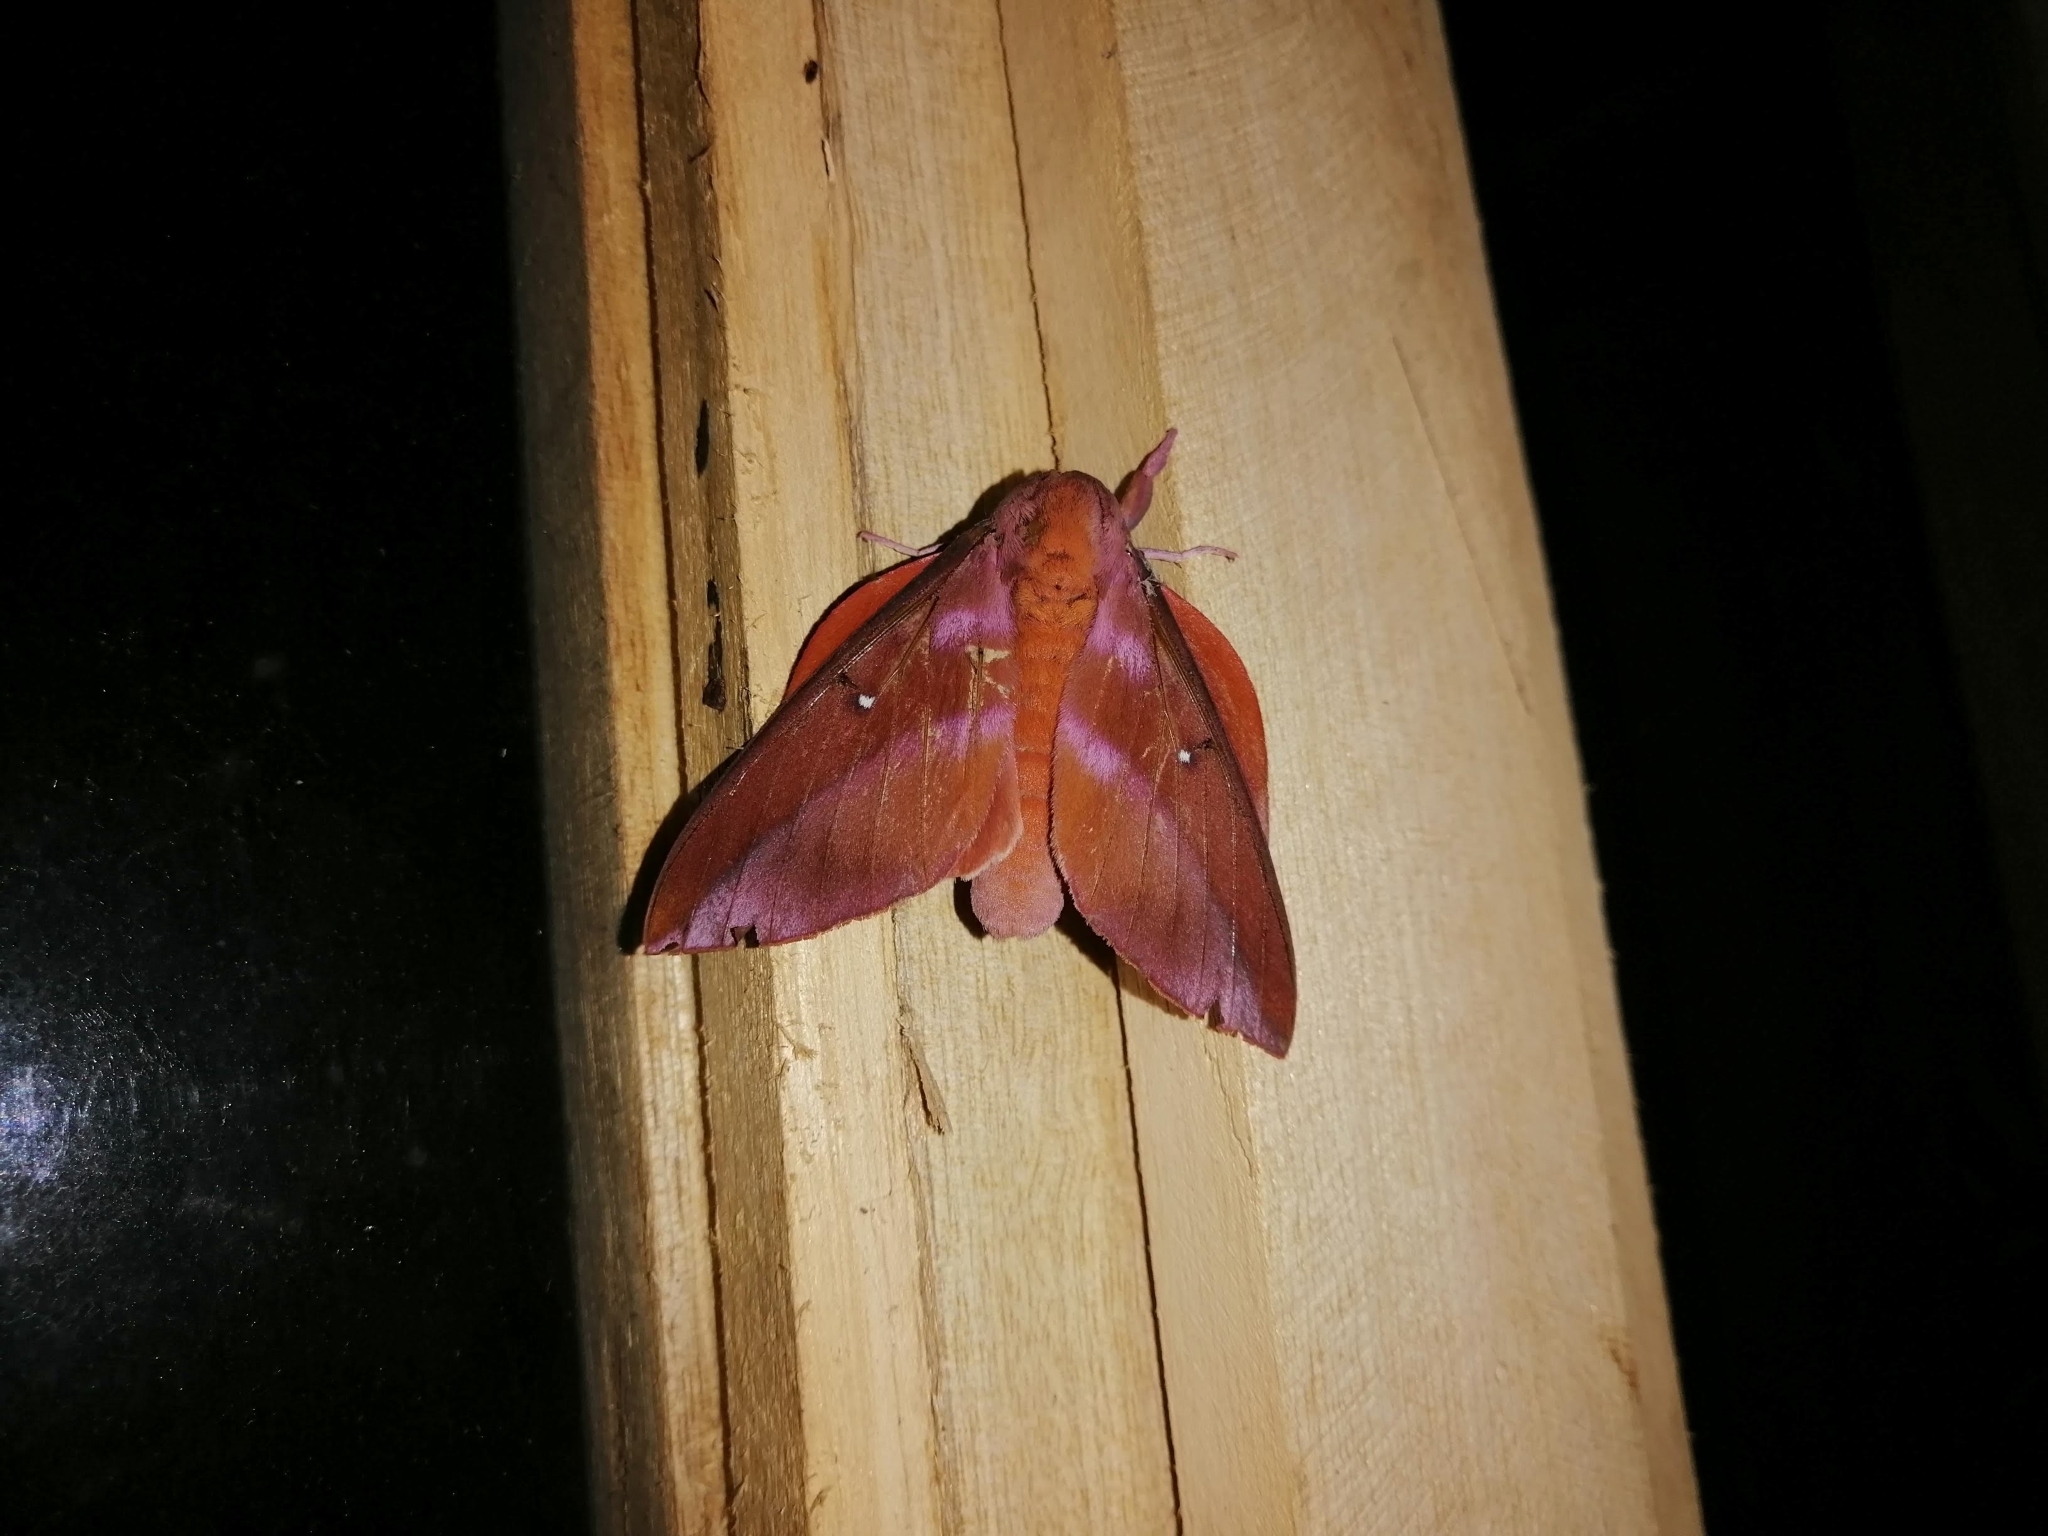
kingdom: Animalia
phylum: Arthropoda
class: Insecta
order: Lepidoptera
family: Saturniidae
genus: Othorene
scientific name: Othorene purpurascens
